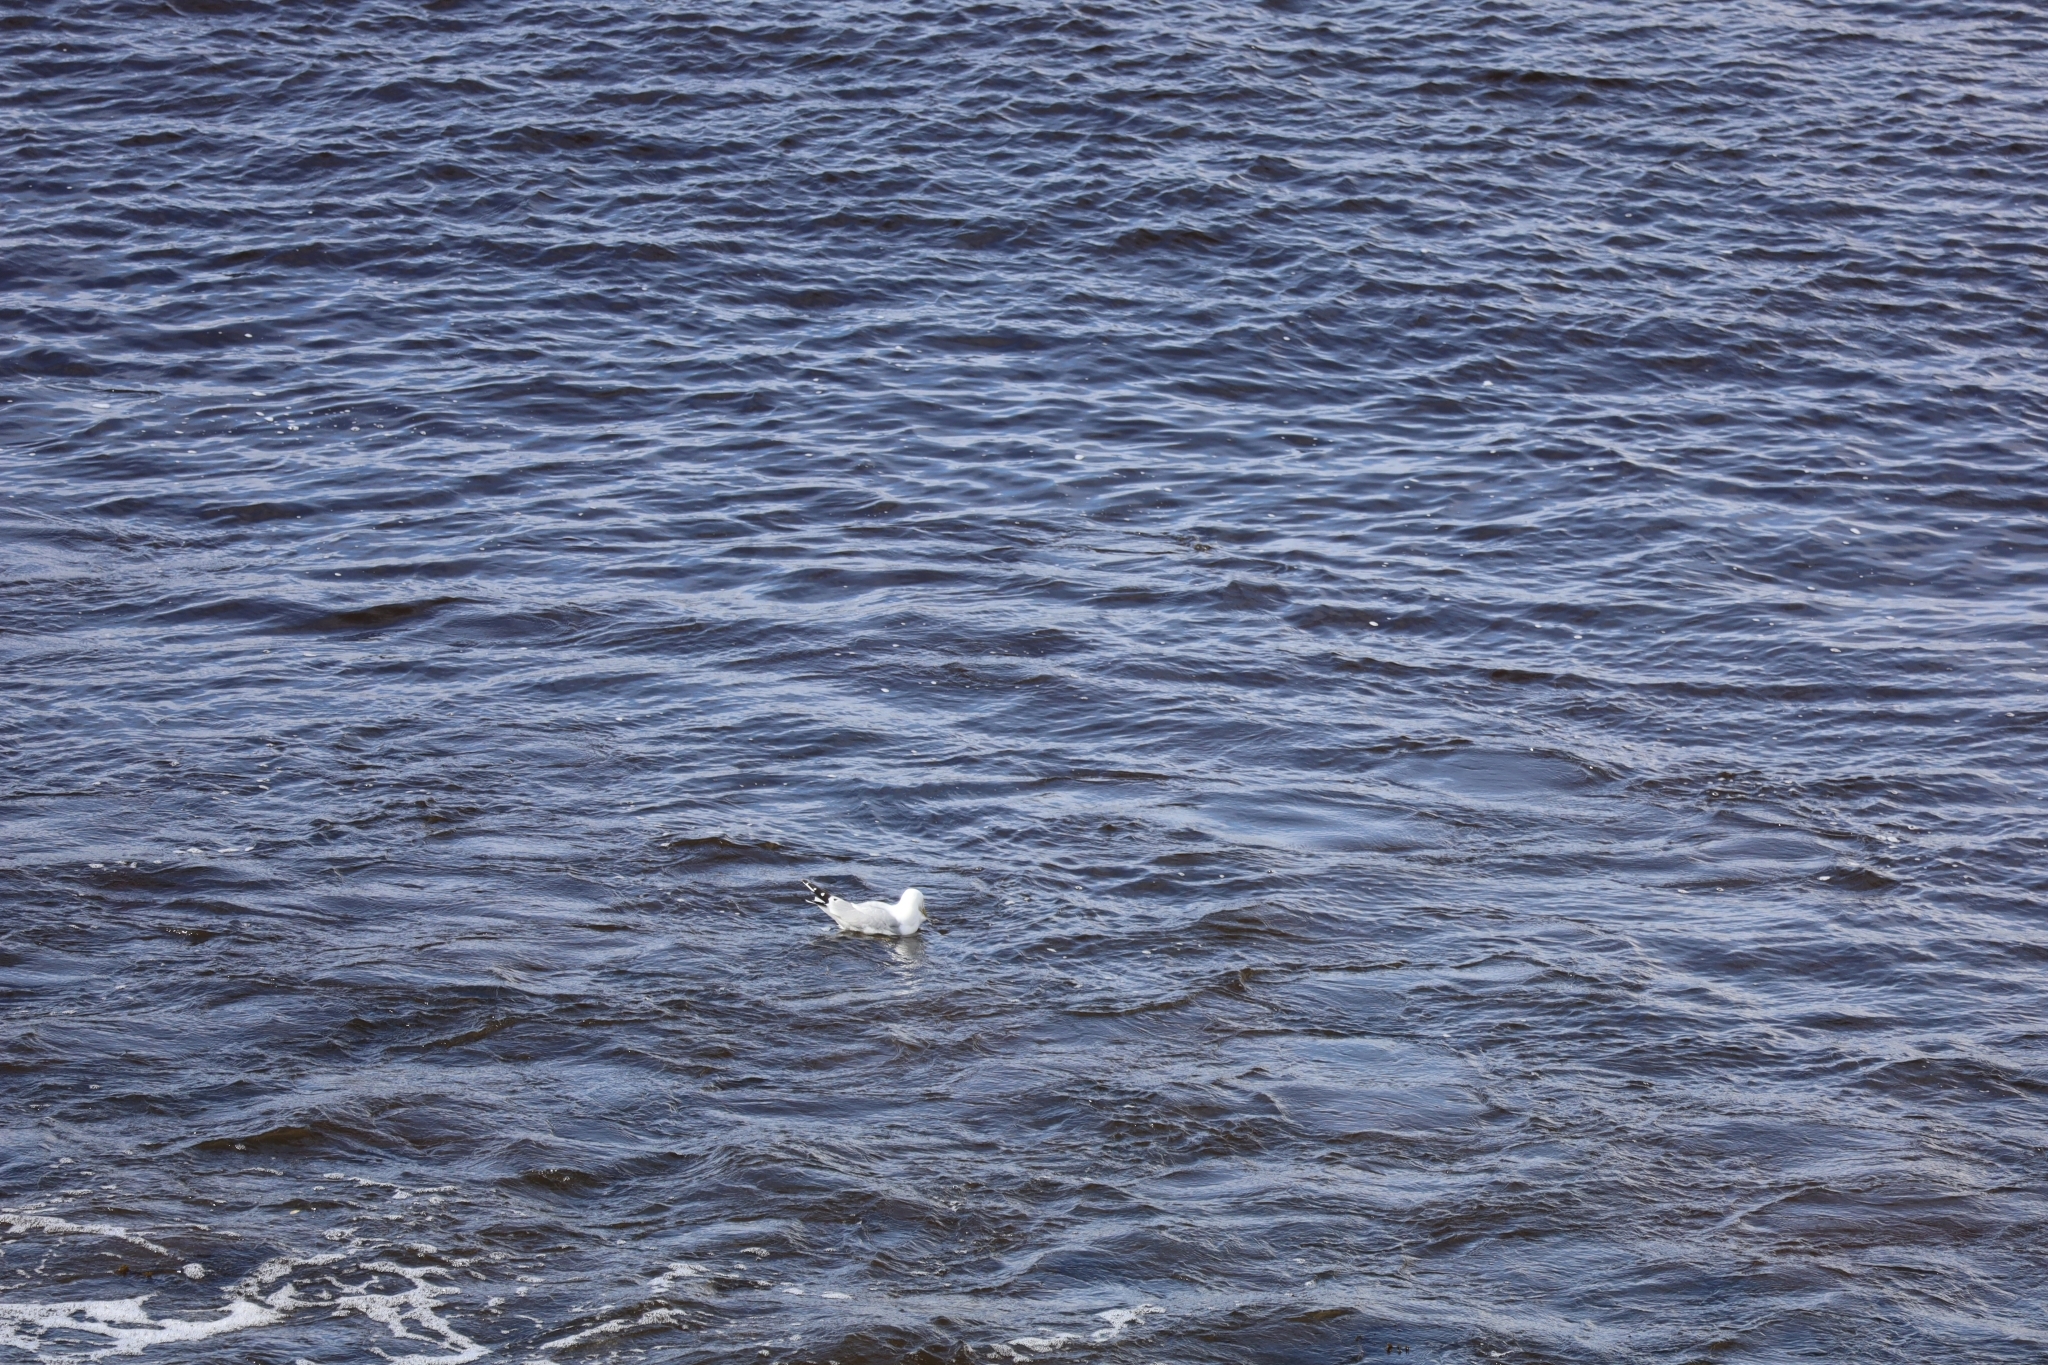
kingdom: Animalia
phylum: Chordata
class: Aves
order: Charadriiformes
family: Laridae
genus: Larus
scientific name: Larus canus
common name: Mew gull
